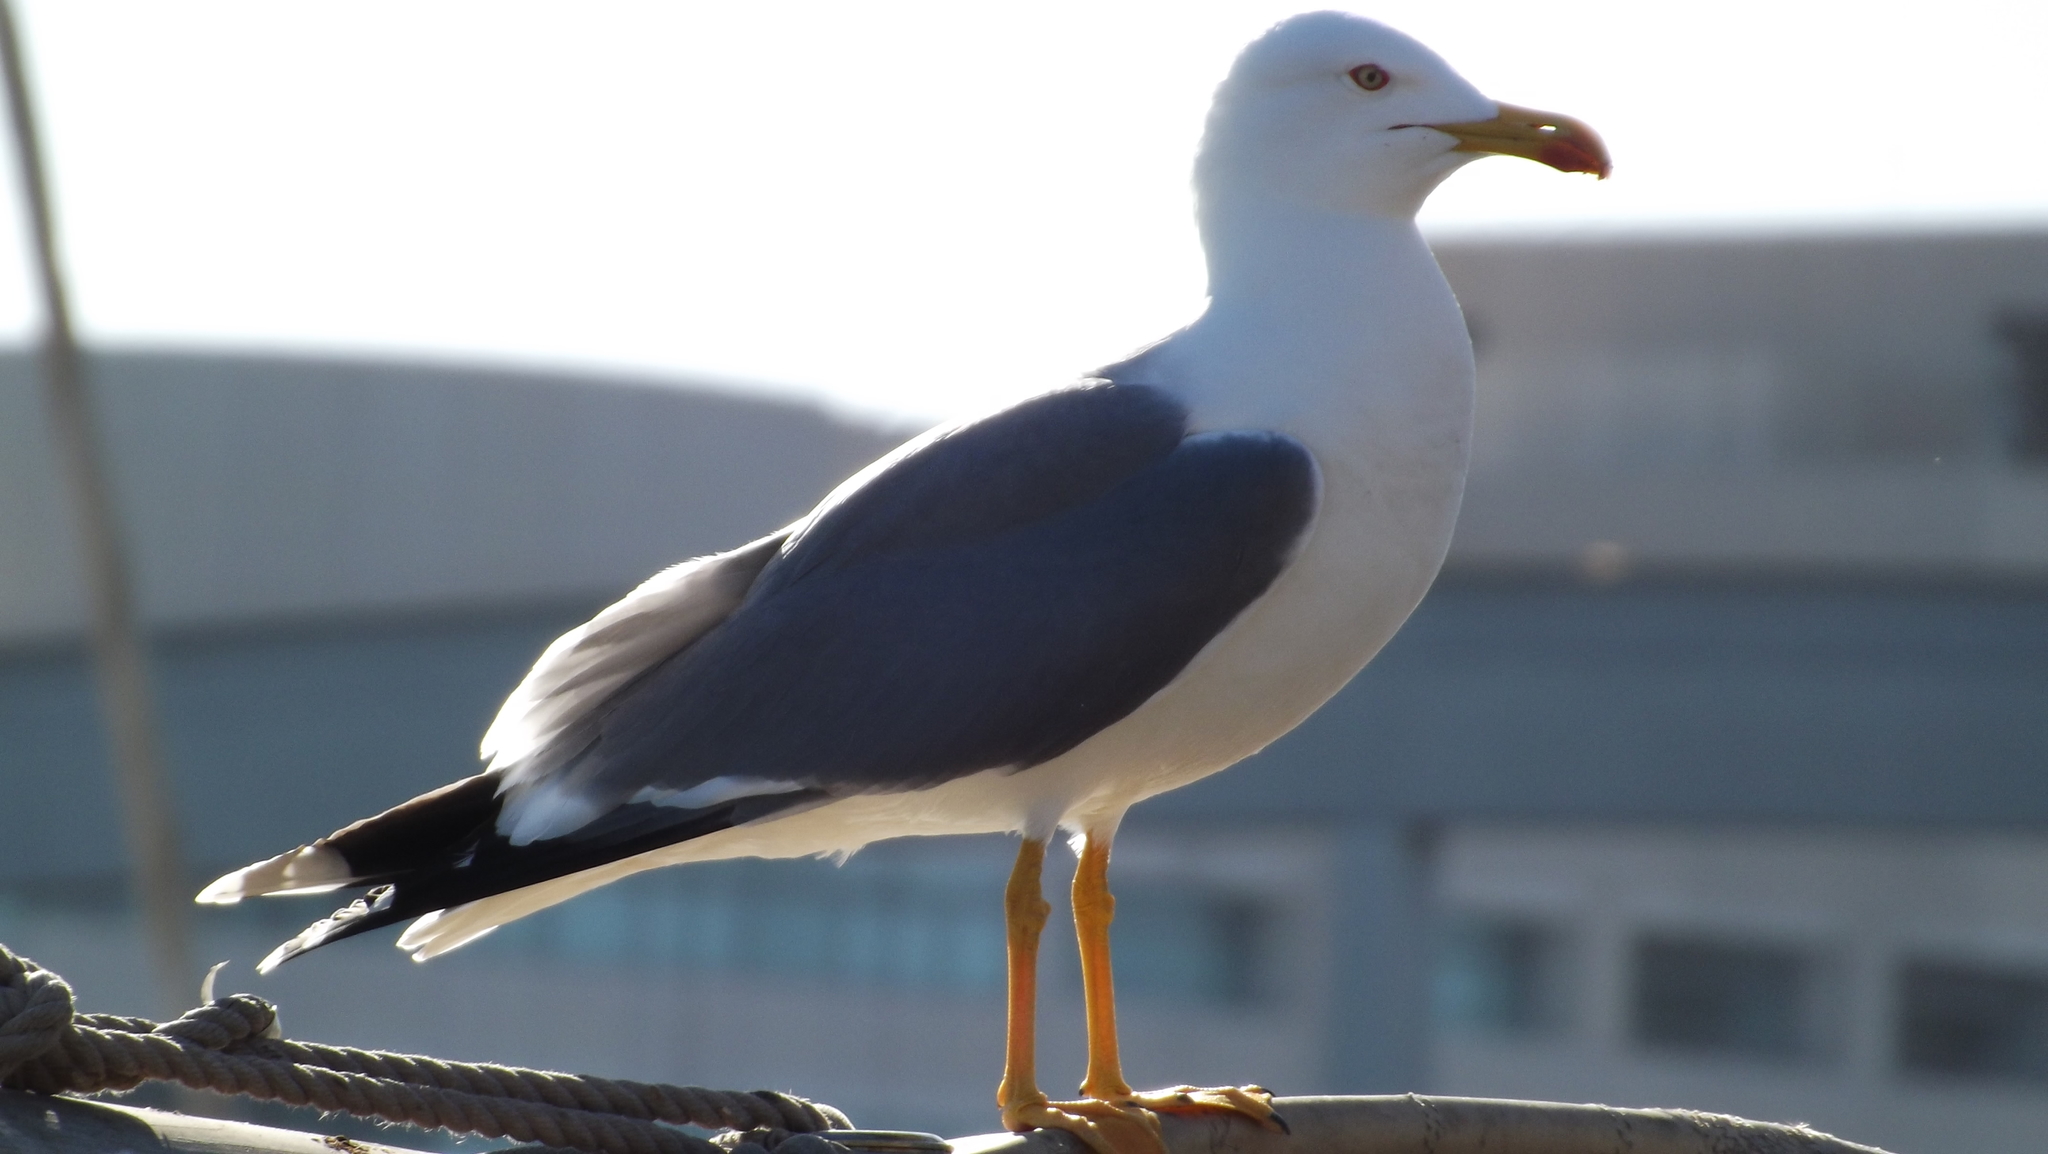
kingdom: Animalia
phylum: Chordata
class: Aves
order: Charadriiformes
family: Laridae
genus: Larus
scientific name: Larus michahellis
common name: Yellow-legged gull
